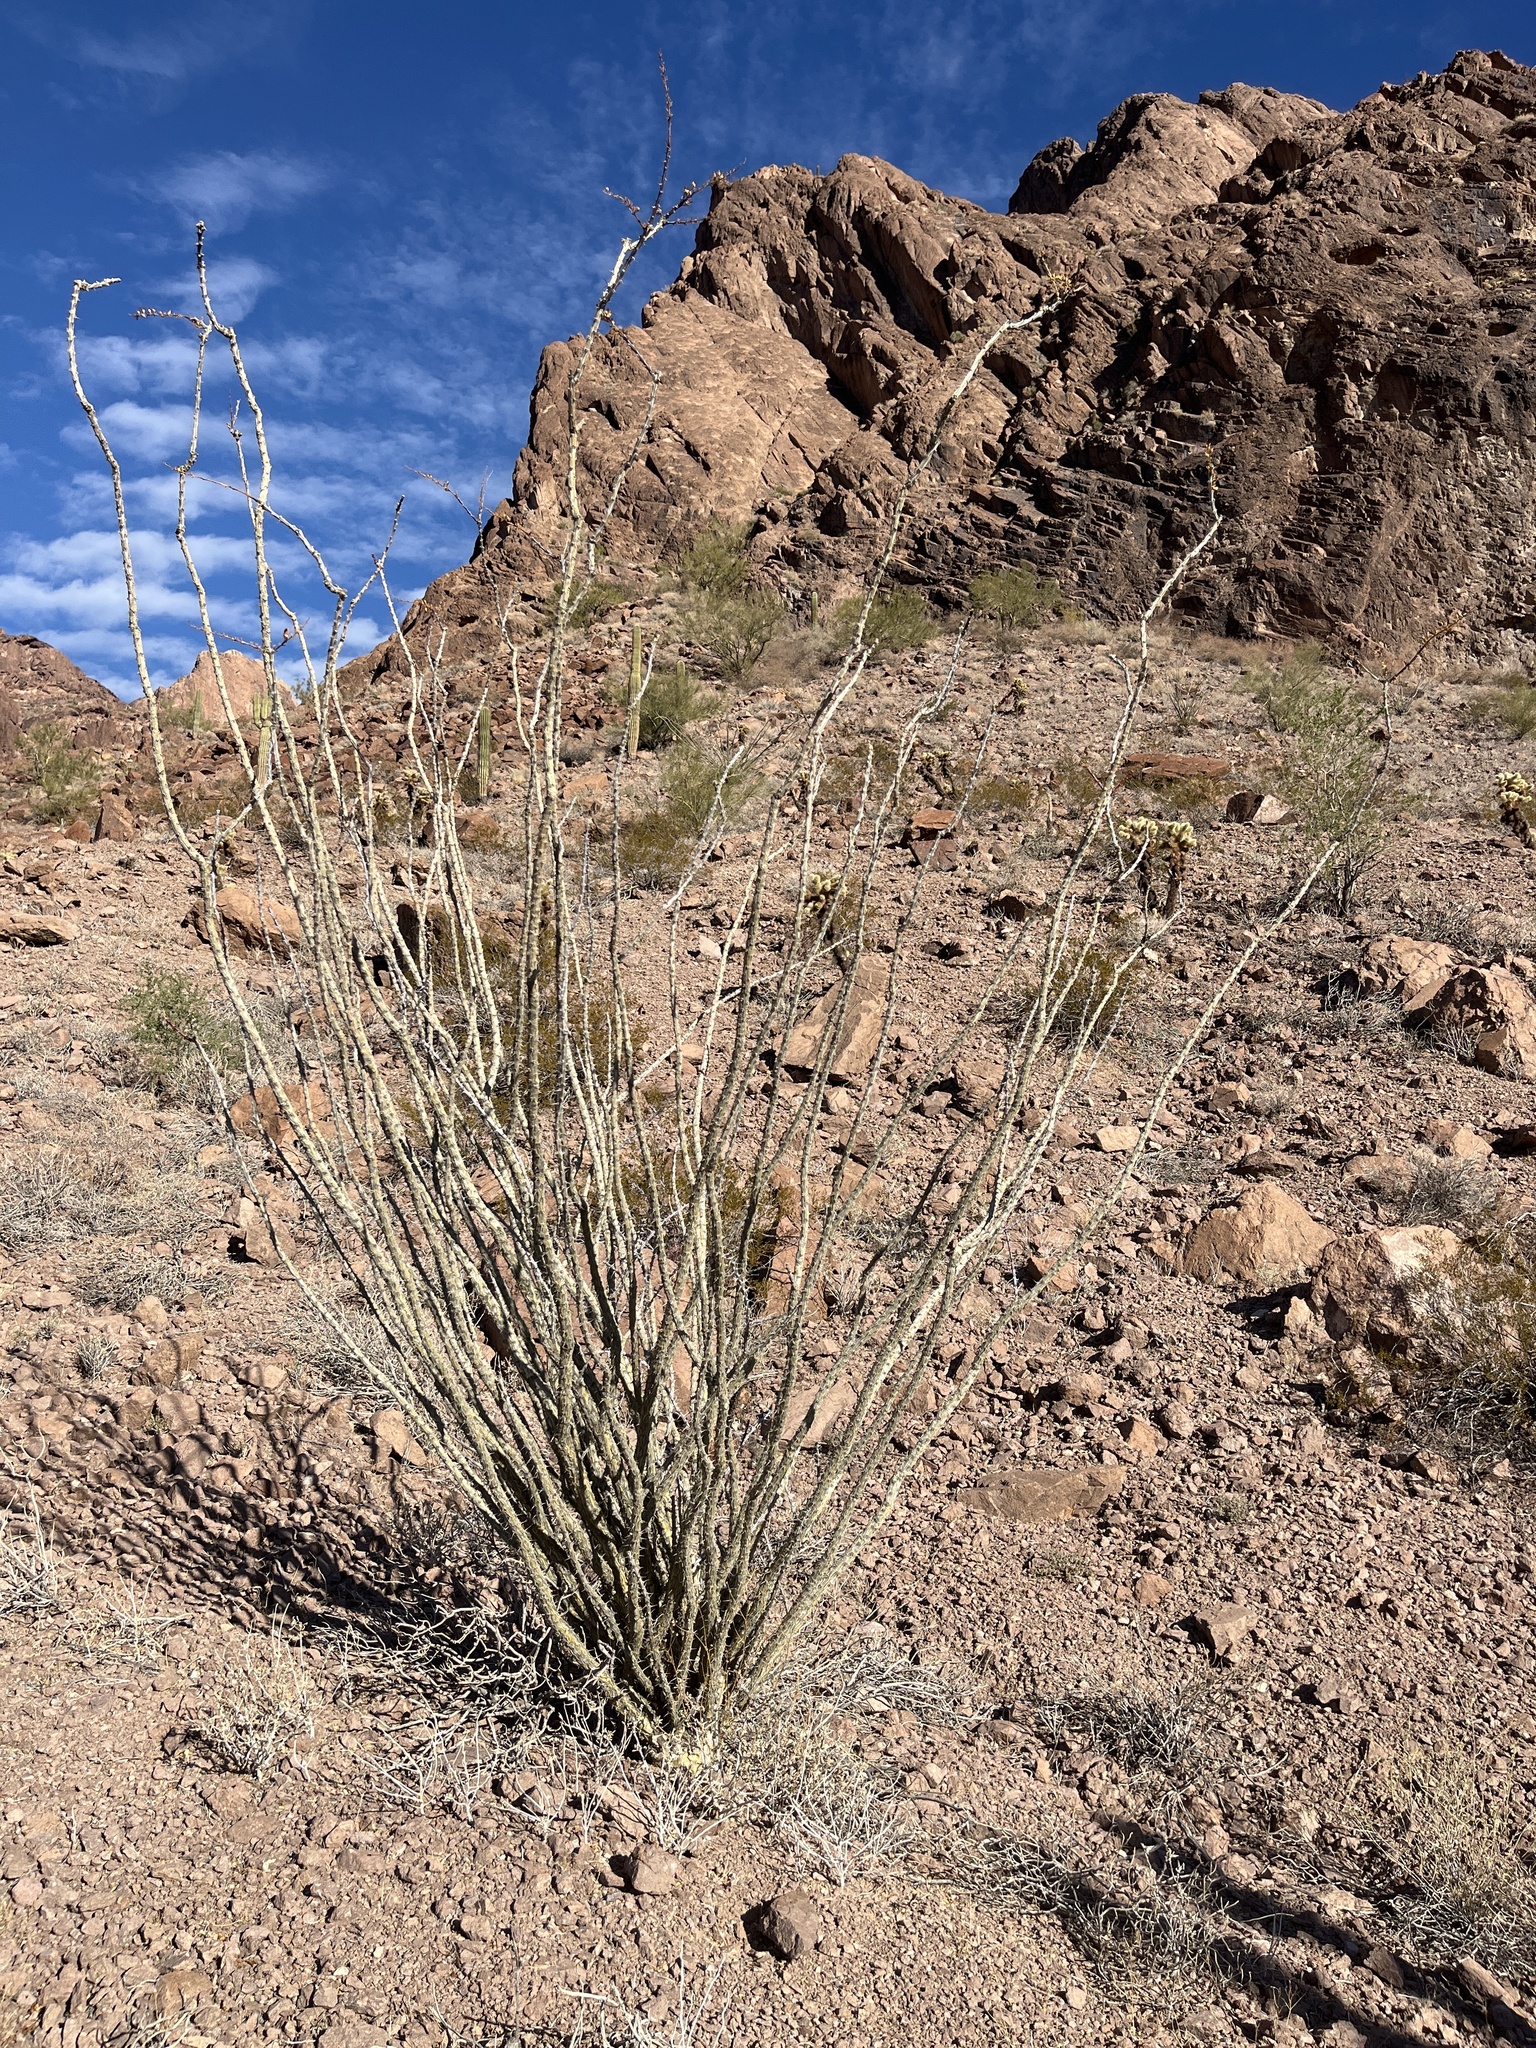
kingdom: Plantae
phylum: Tracheophyta
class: Magnoliopsida
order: Ericales
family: Fouquieriaceae
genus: Fouquieria
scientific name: Fouquieria splendens
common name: Vine-cactus
